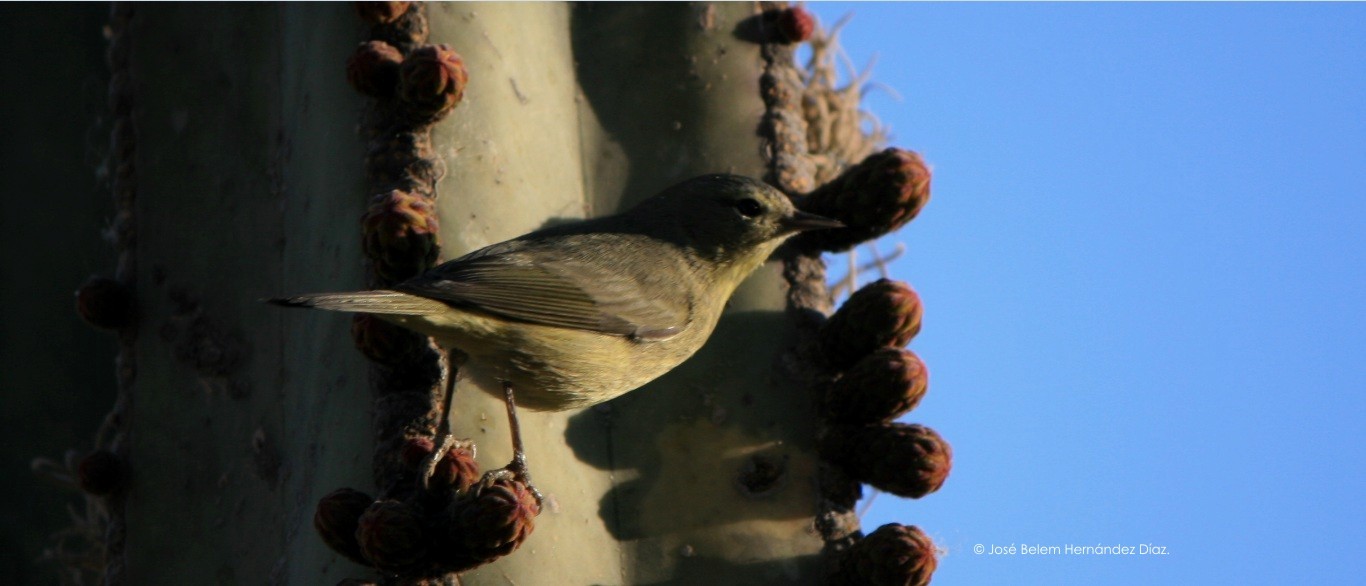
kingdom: Animalia
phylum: Chordata
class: Aves
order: Passeriformes
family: Parulidae
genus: Leiothlypis
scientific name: Leiothlypis celata
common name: Orange-crowned warbler
